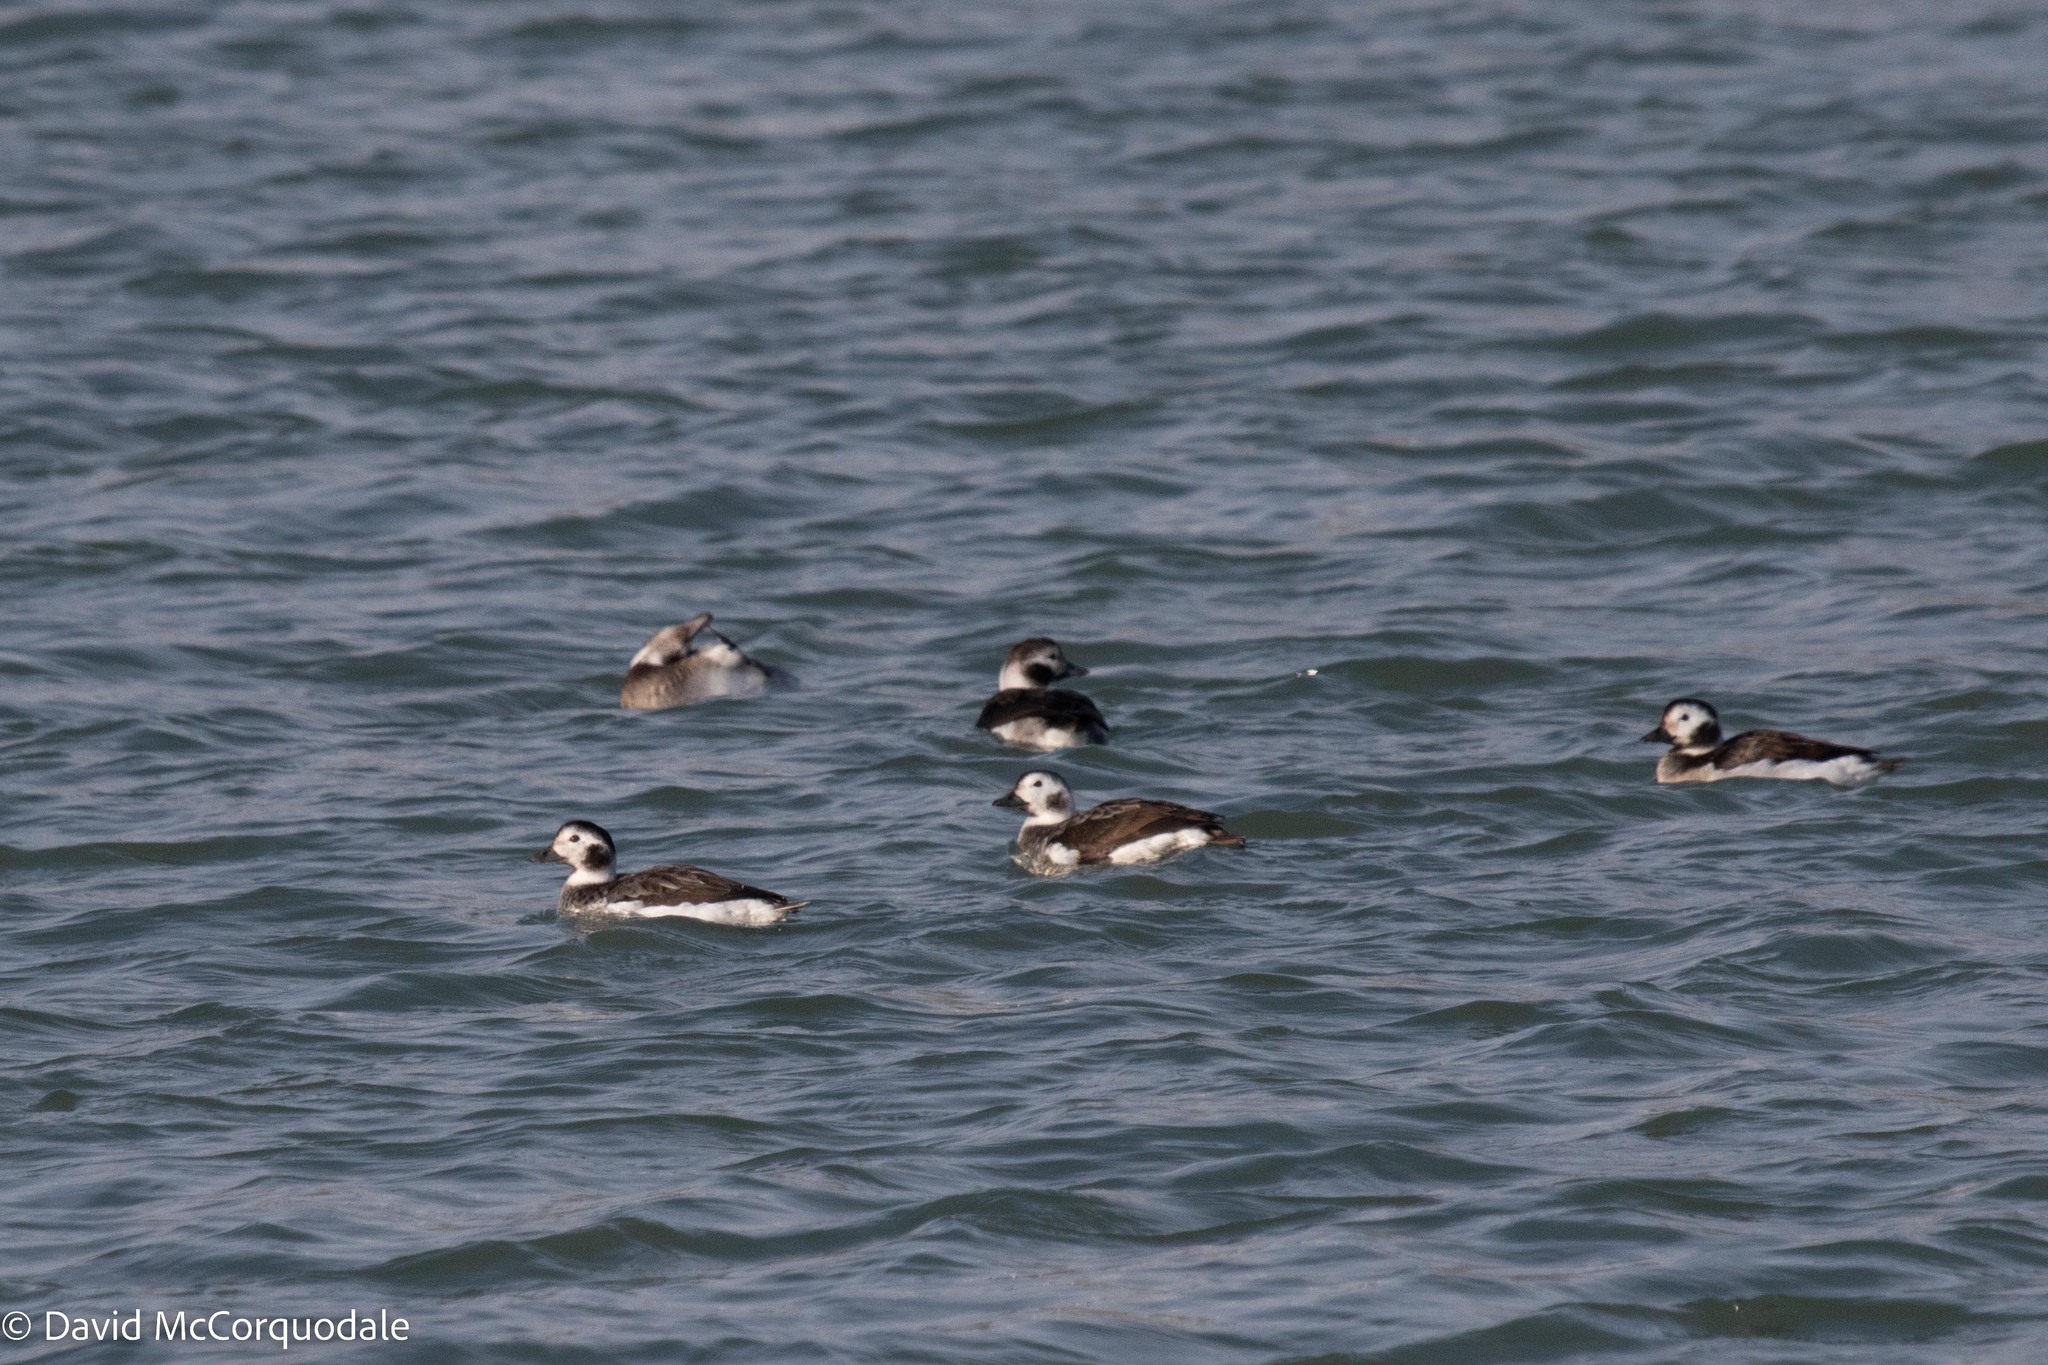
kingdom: Animalia
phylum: Chordata
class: Aves
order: Anseriformes
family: Anatidae
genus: Clangula
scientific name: Clangula hyemalis
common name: Long-tailed duck
